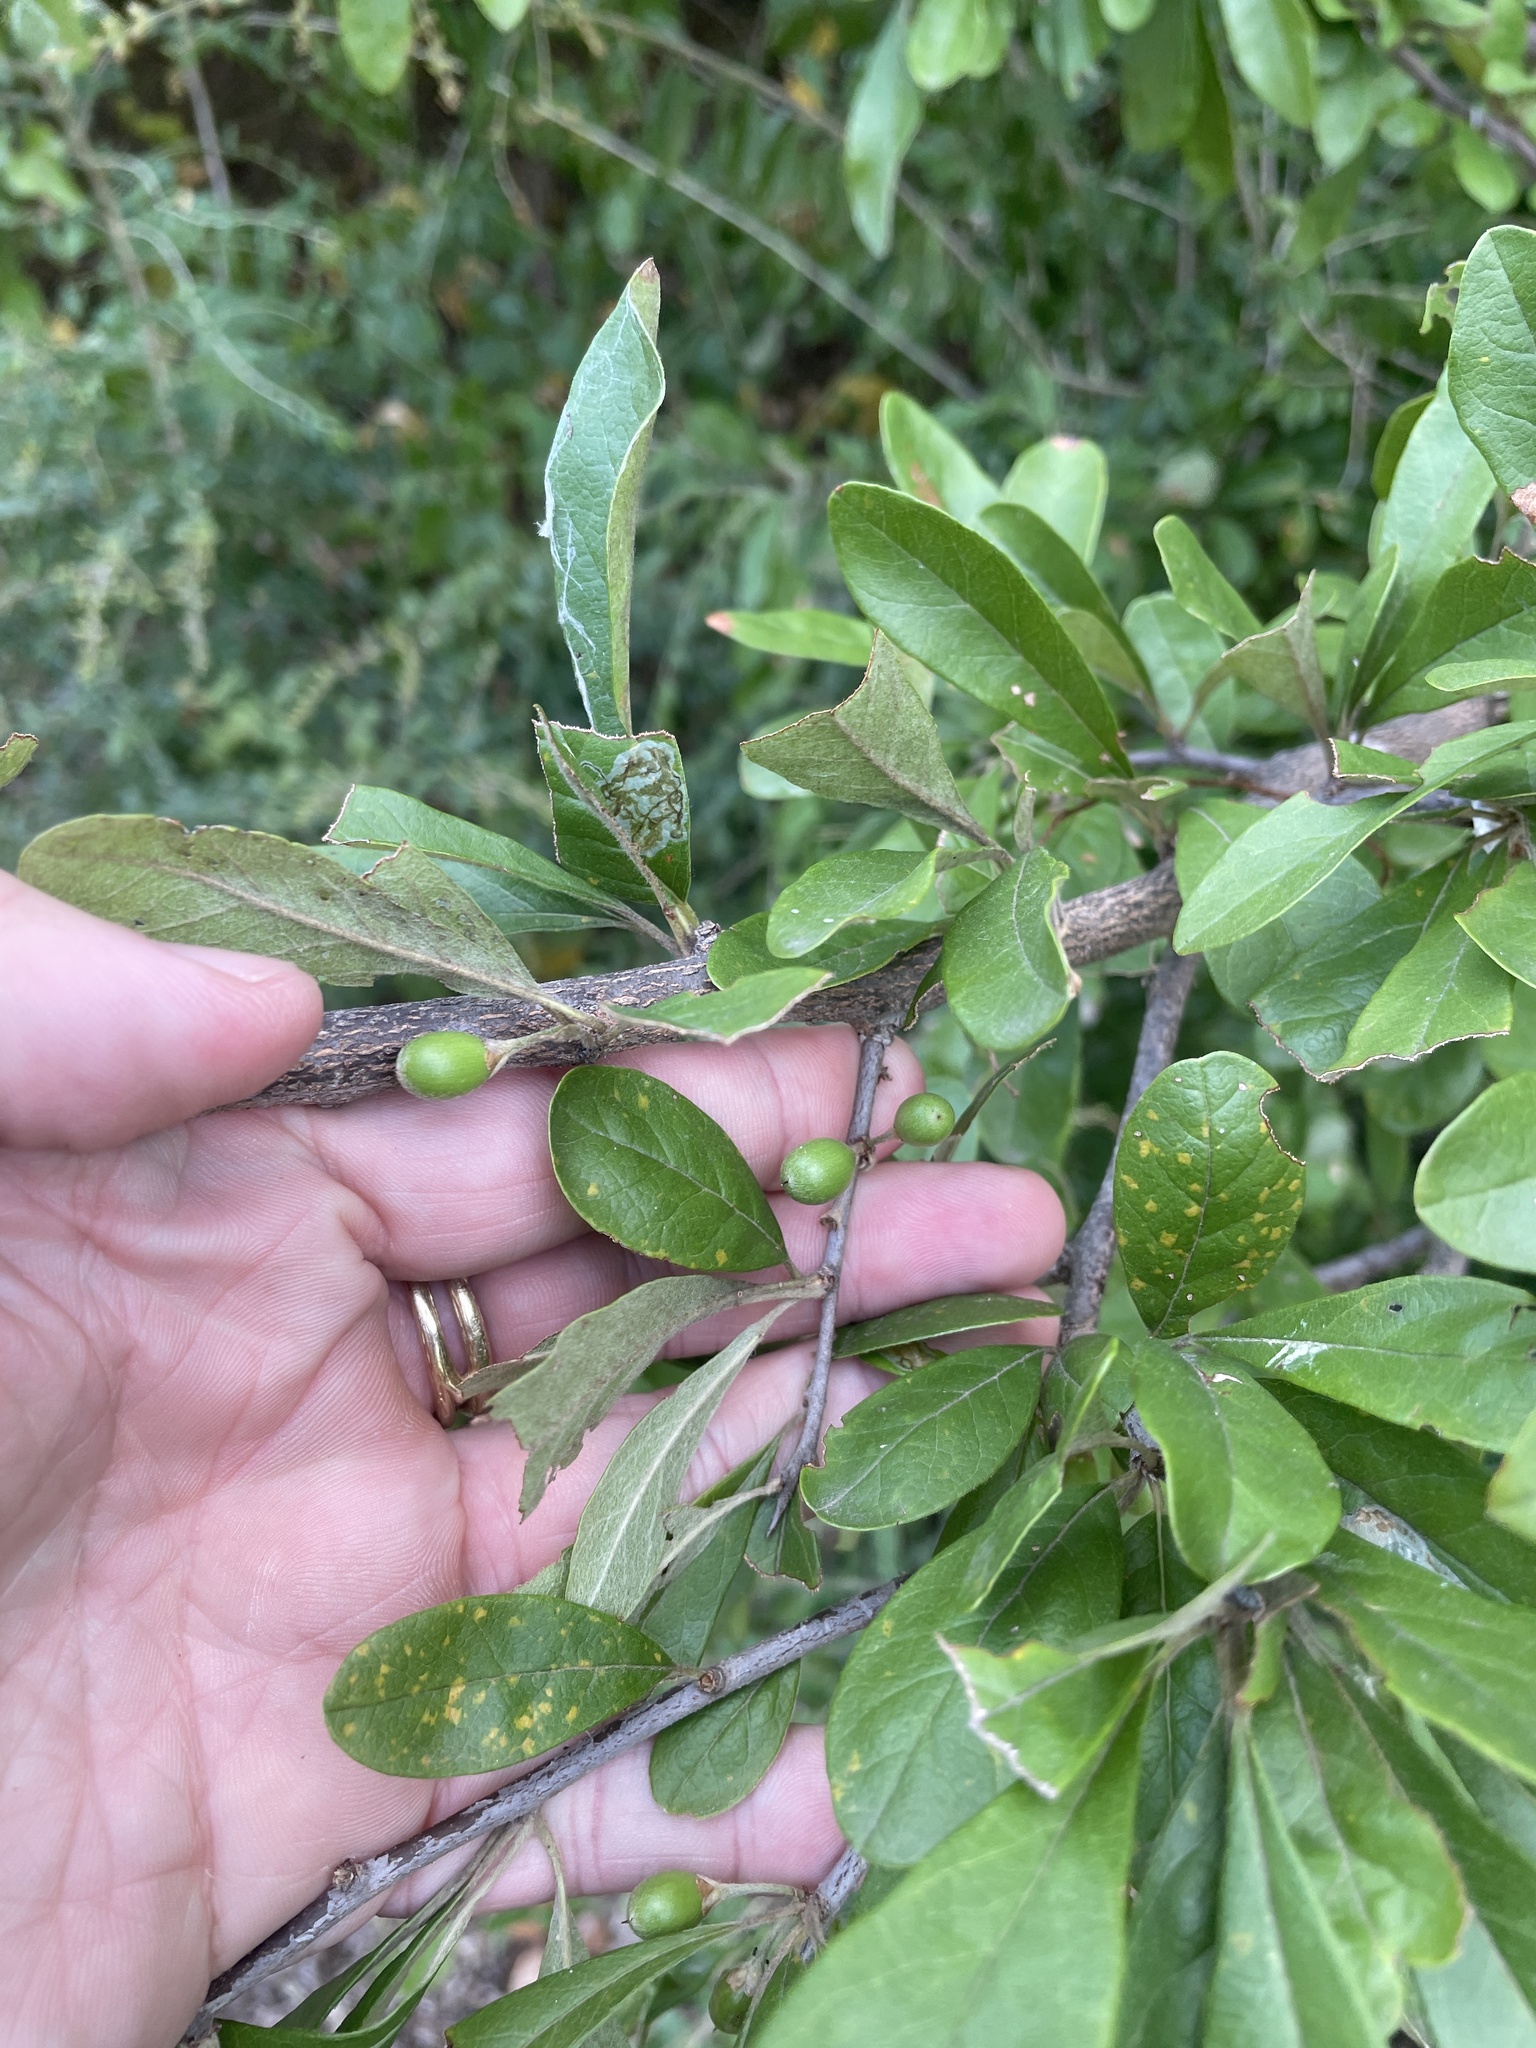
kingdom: Plantae
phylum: Tracheophyta
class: Magnoliopsida
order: Ericales
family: Sapotaceae
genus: Sideroxylon
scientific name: Sideroxylon lanuginosum
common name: Chittamwood
